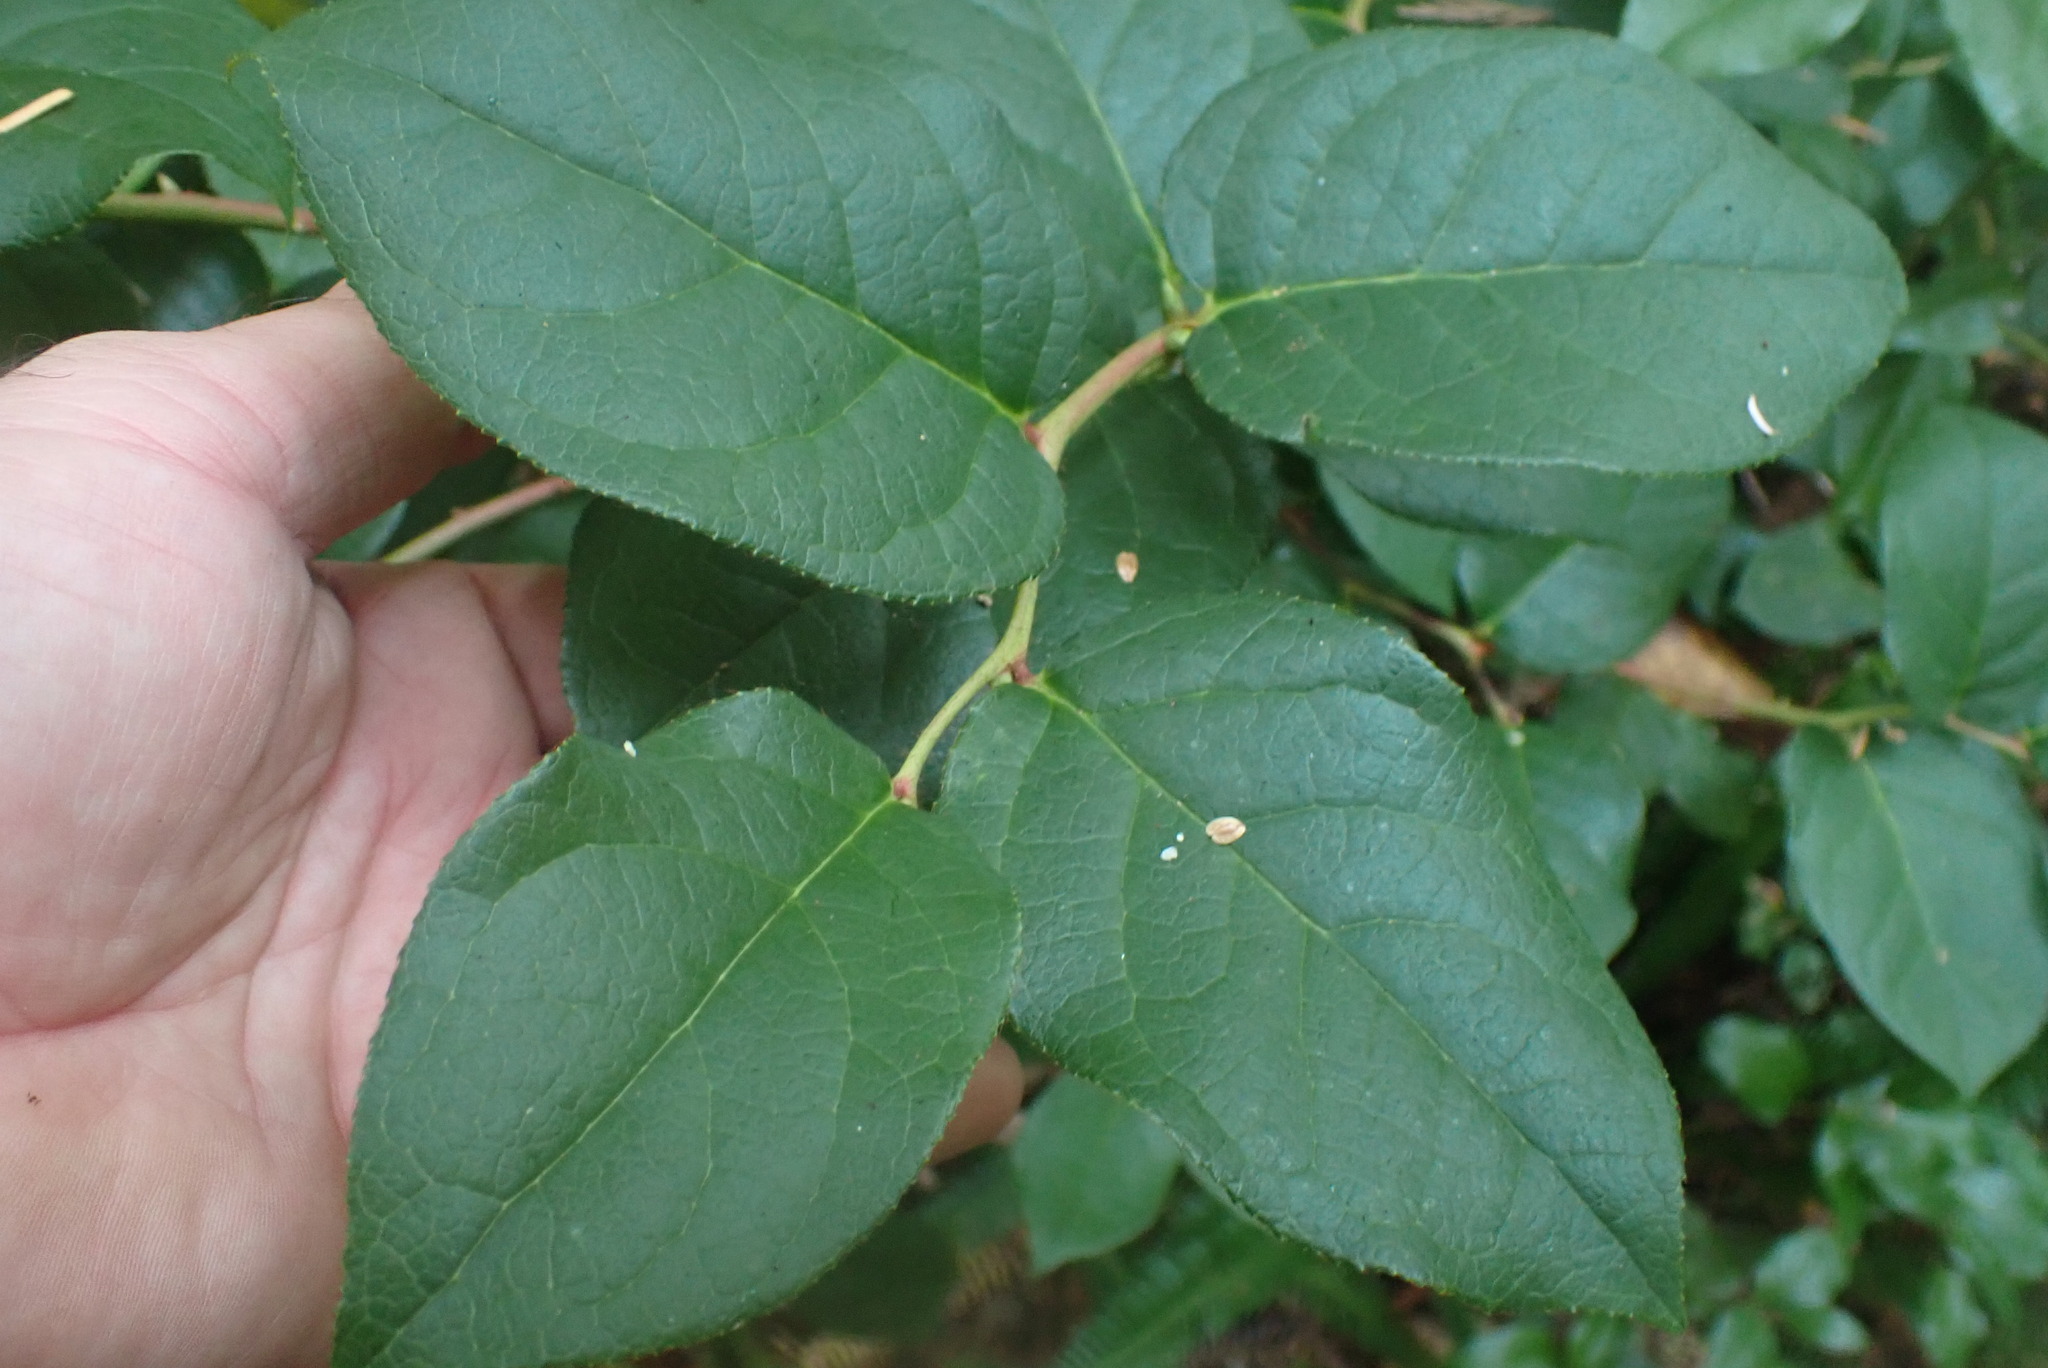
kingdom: Plantae
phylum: Tracheophyta
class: Magnoliopsida
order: Ericales
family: Ericaceae
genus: Gaultheria
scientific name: Gaultheria shallon
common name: Shallon
